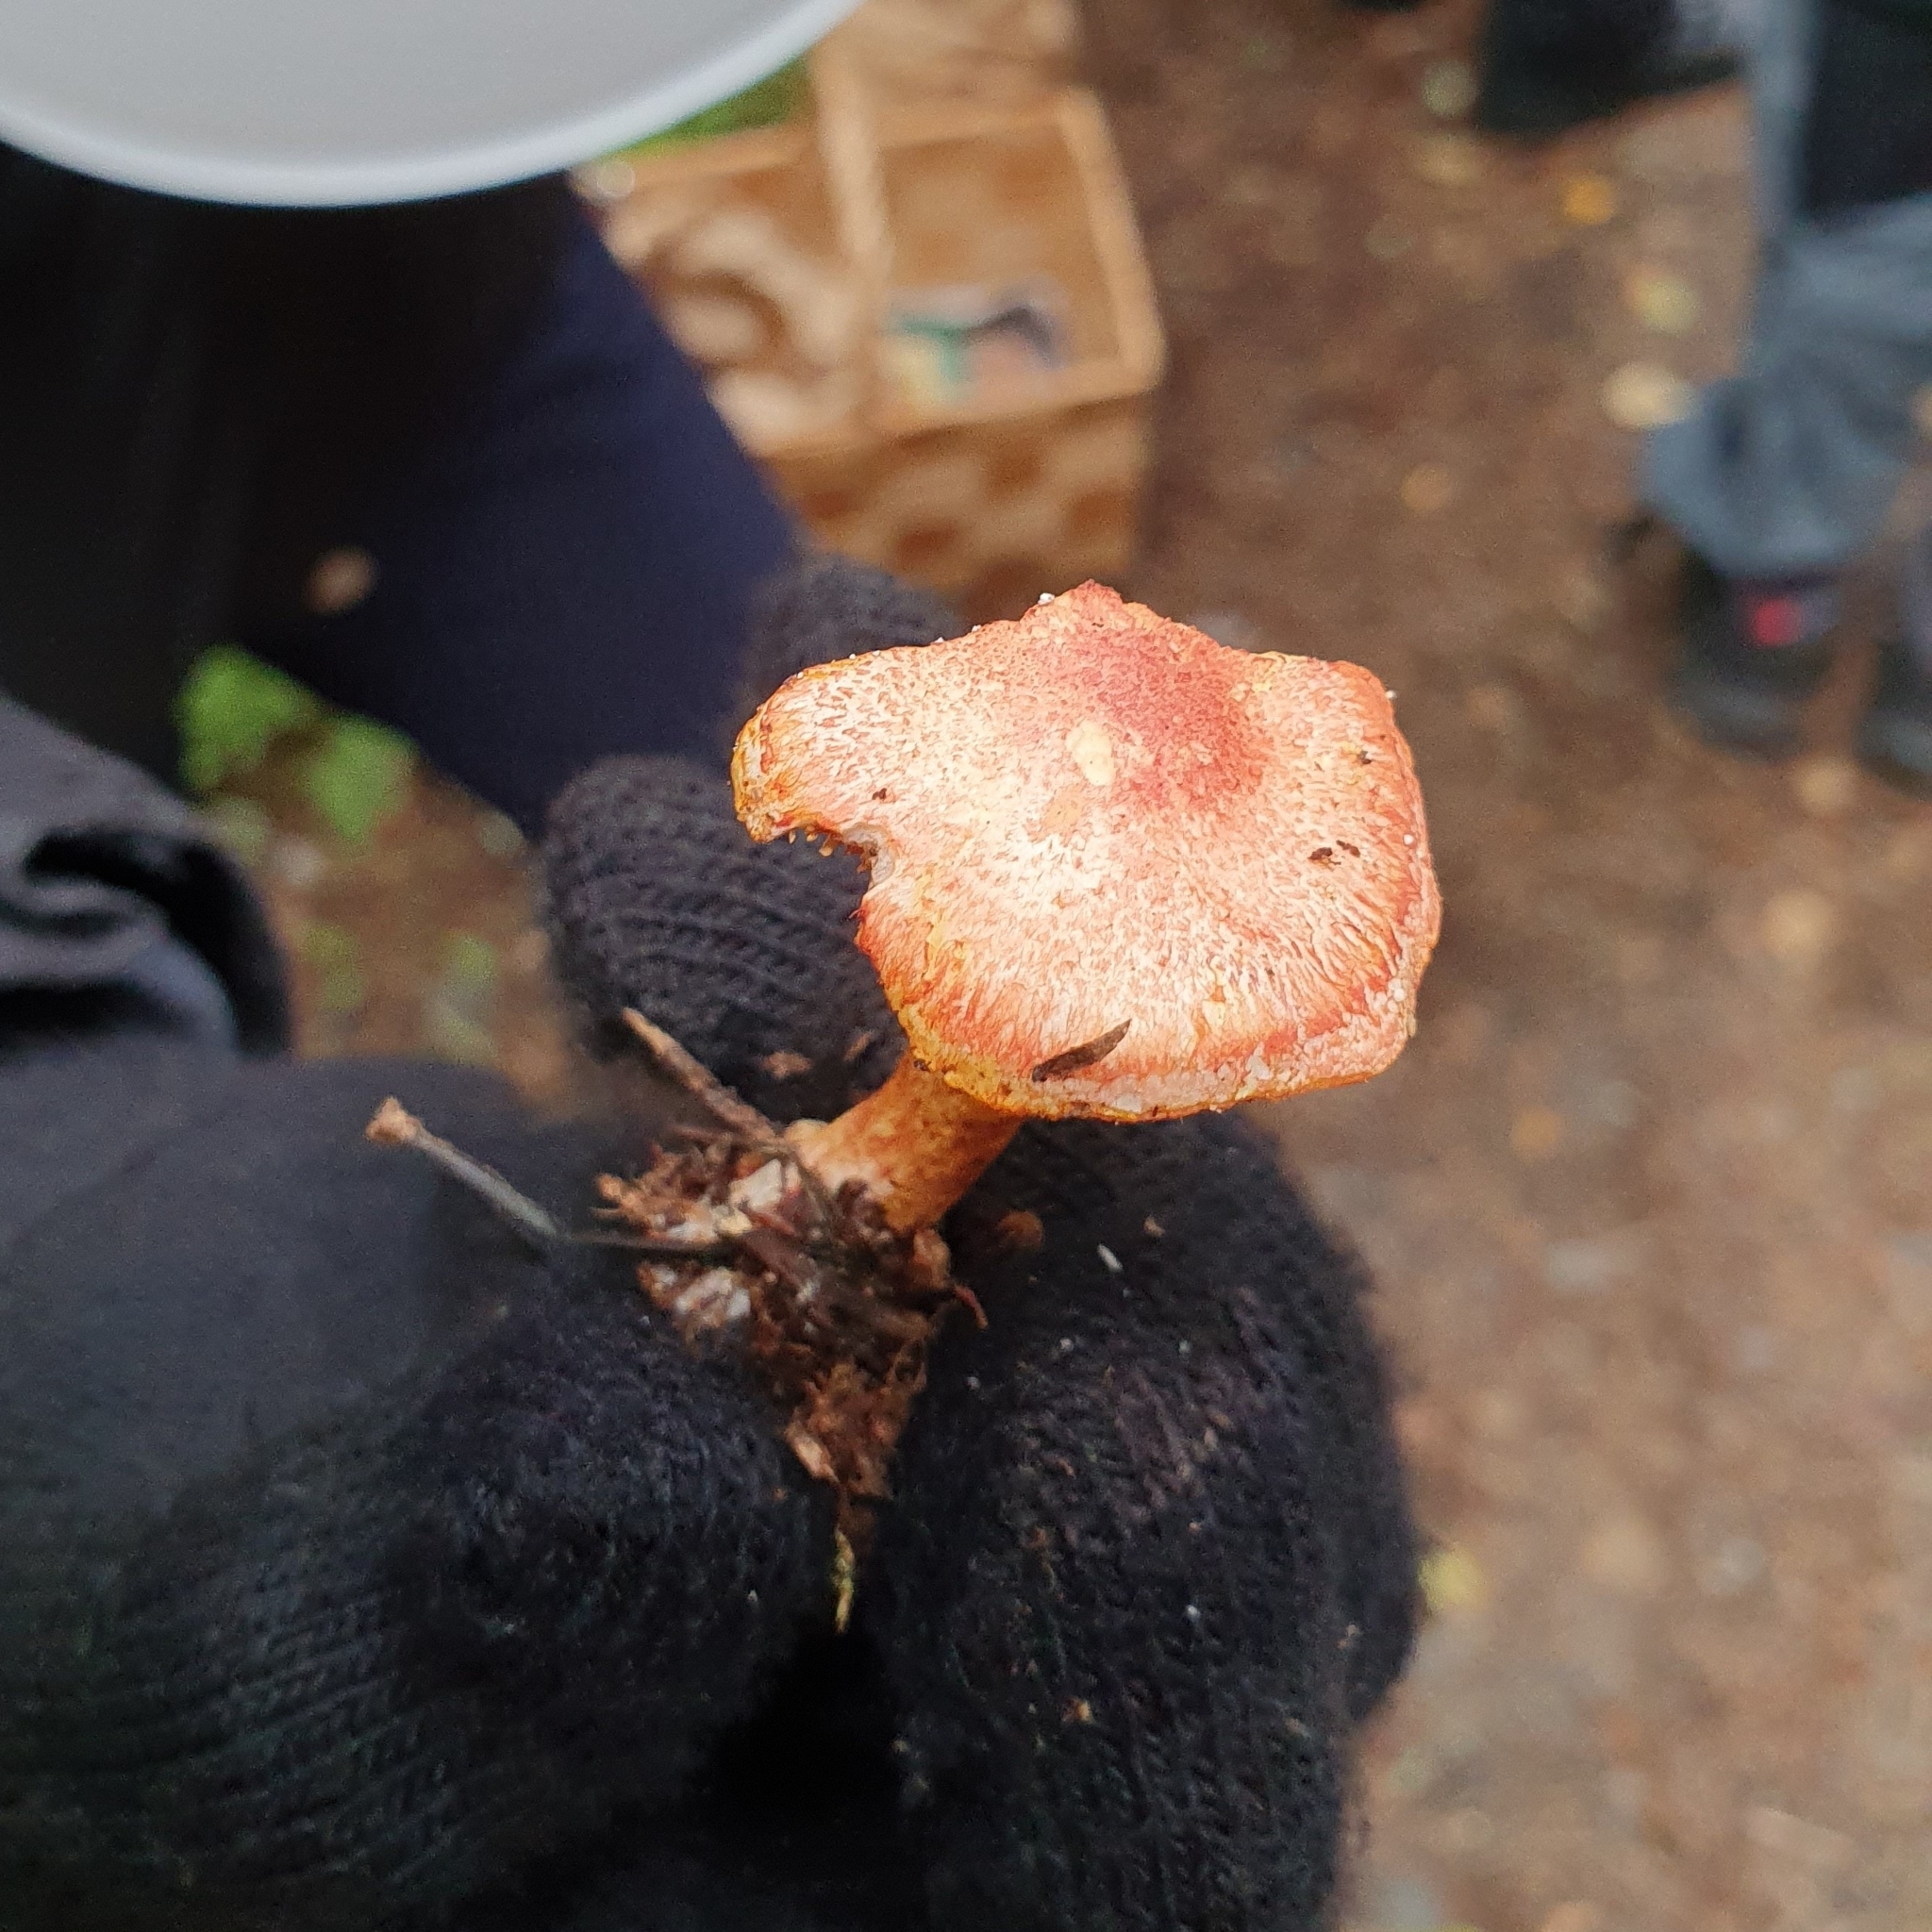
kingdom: Fungi
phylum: Basidiomycota
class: Agaricomycetes
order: Agaricales
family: Cortinariaceae
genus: Cortinarius
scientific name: Cortinarius bolaris
